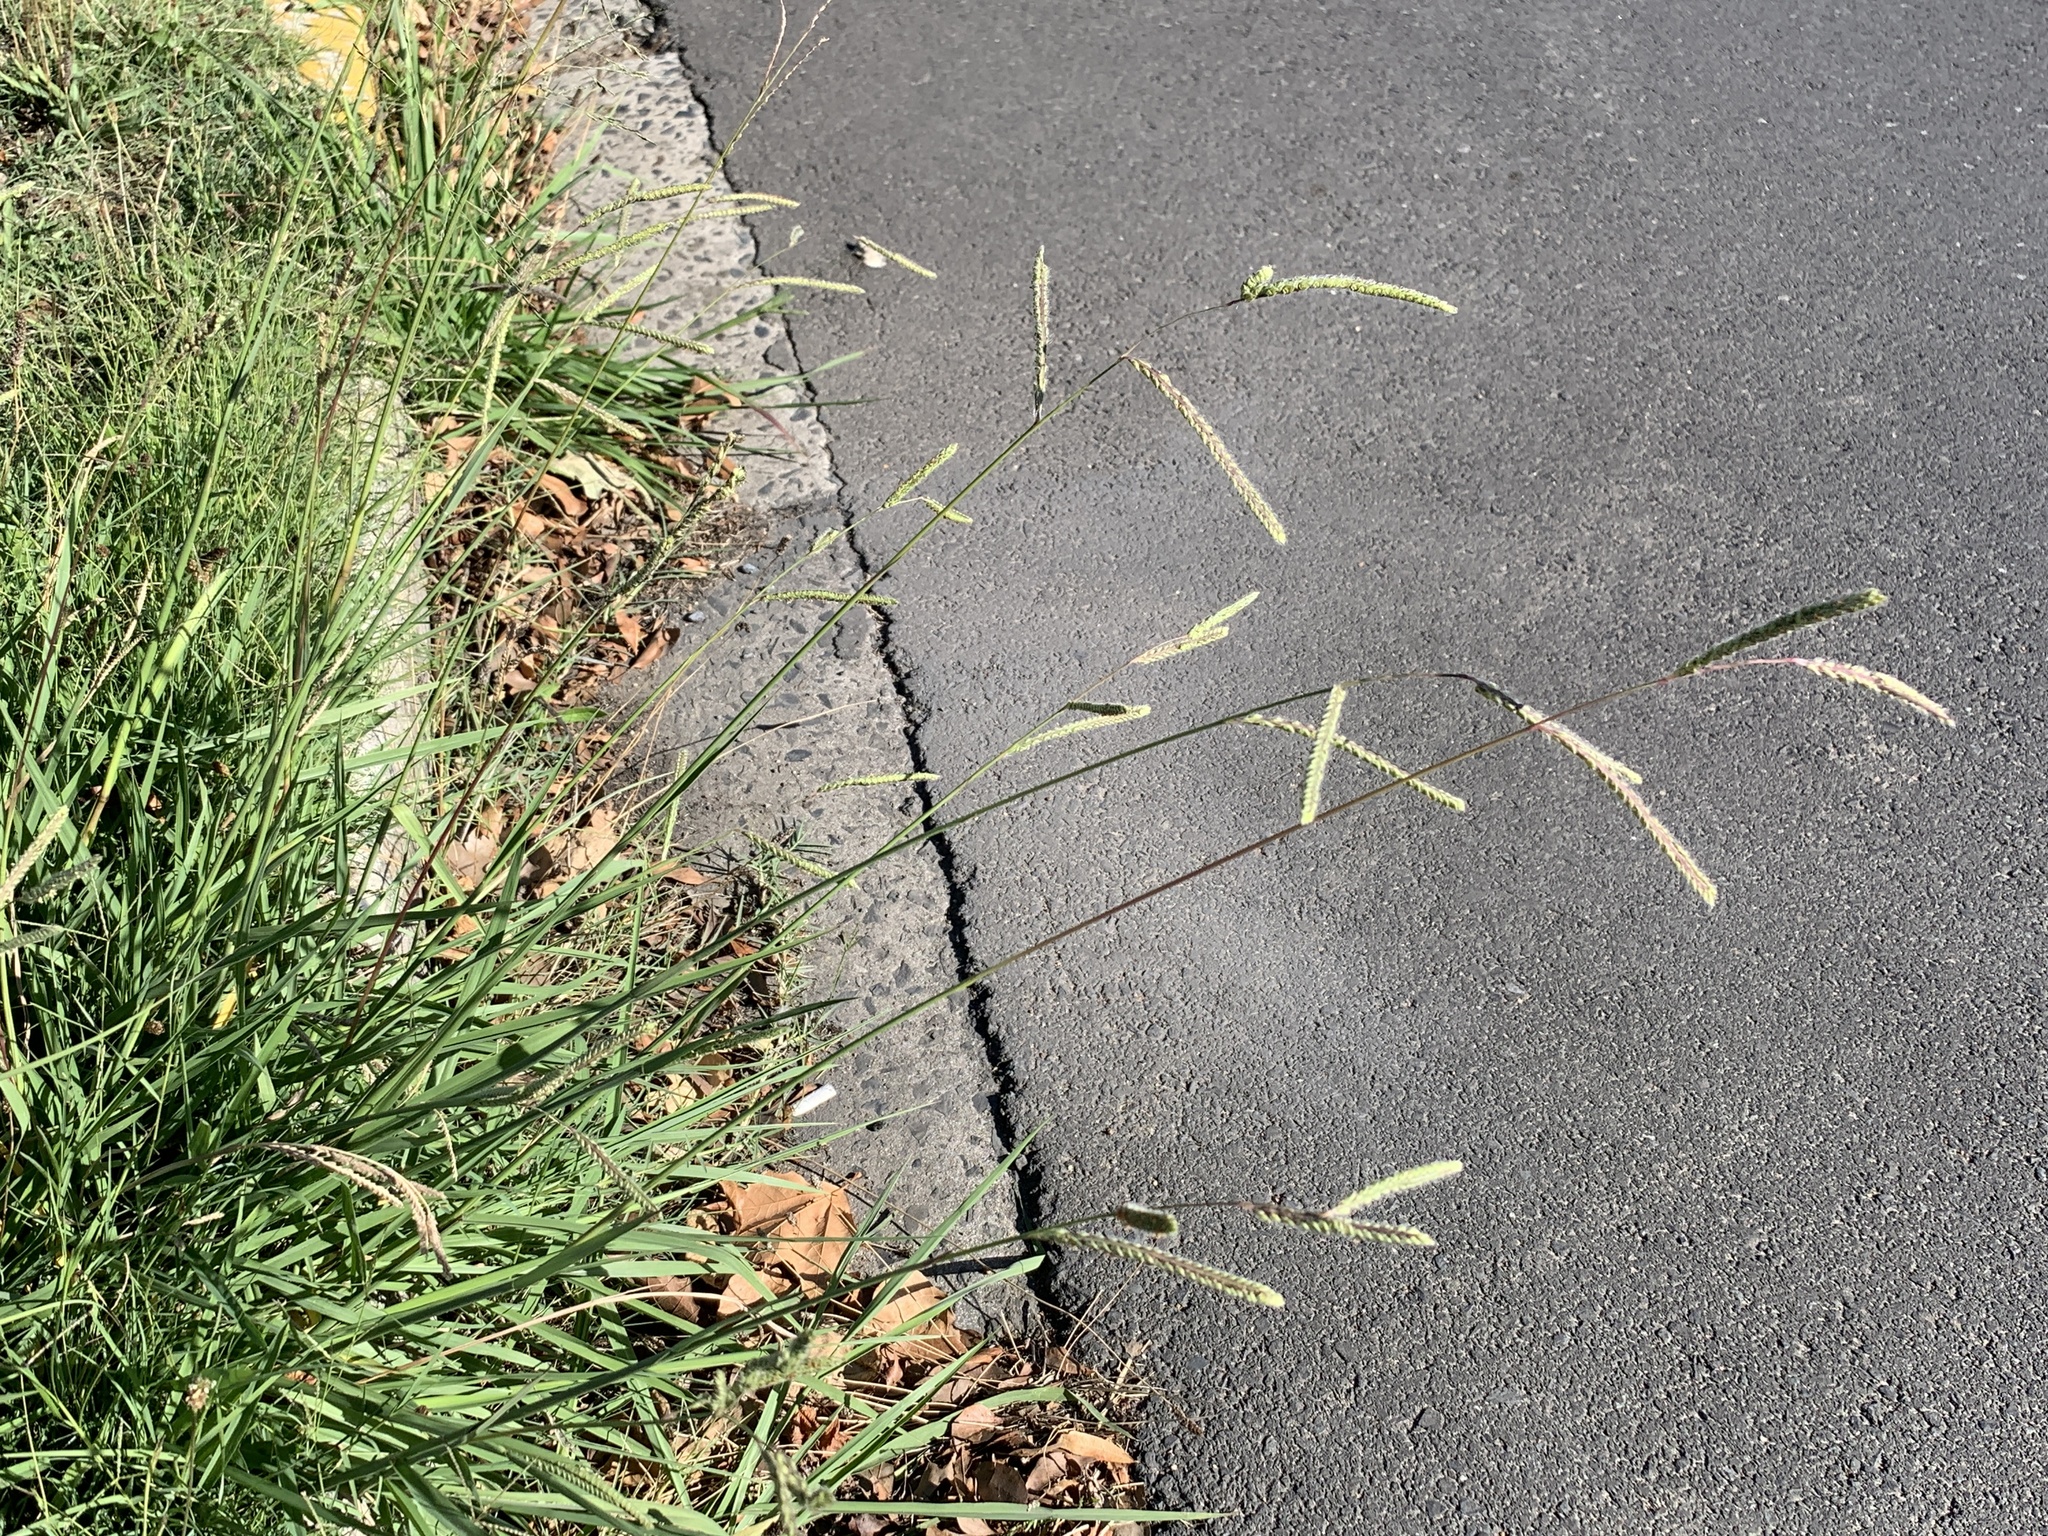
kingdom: Plantae
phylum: Tracheophyta
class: Liliopsida
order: Poales
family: Poaceae
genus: Paspalum
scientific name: Paspalum dilatatum
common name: Dallisgrass
